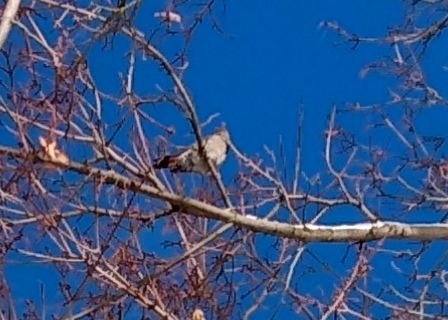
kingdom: Animalia
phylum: Chordata
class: Aves
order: Piciformes
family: Picidae
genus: Colaptes
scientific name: Colaptes auratus
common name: Northern flicker
